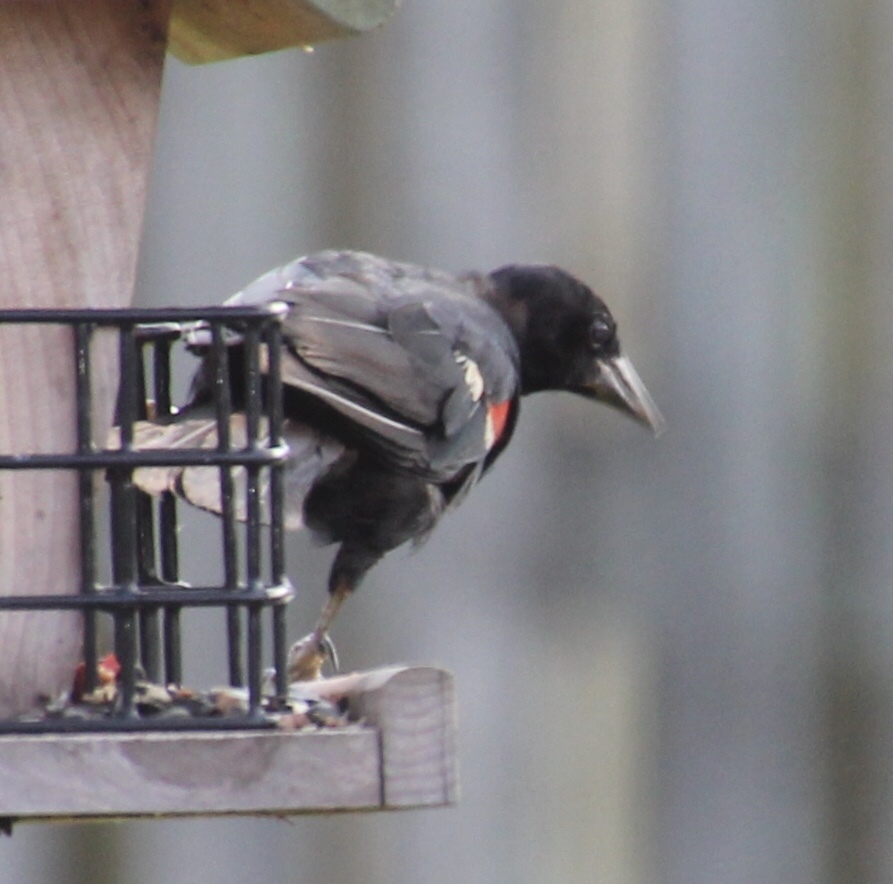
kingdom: Animalia
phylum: Chordata
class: Aves
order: Passeriformes
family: Icteridae
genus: Agelaius
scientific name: Agelaius phoeniceus
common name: Red-winged blackbird
